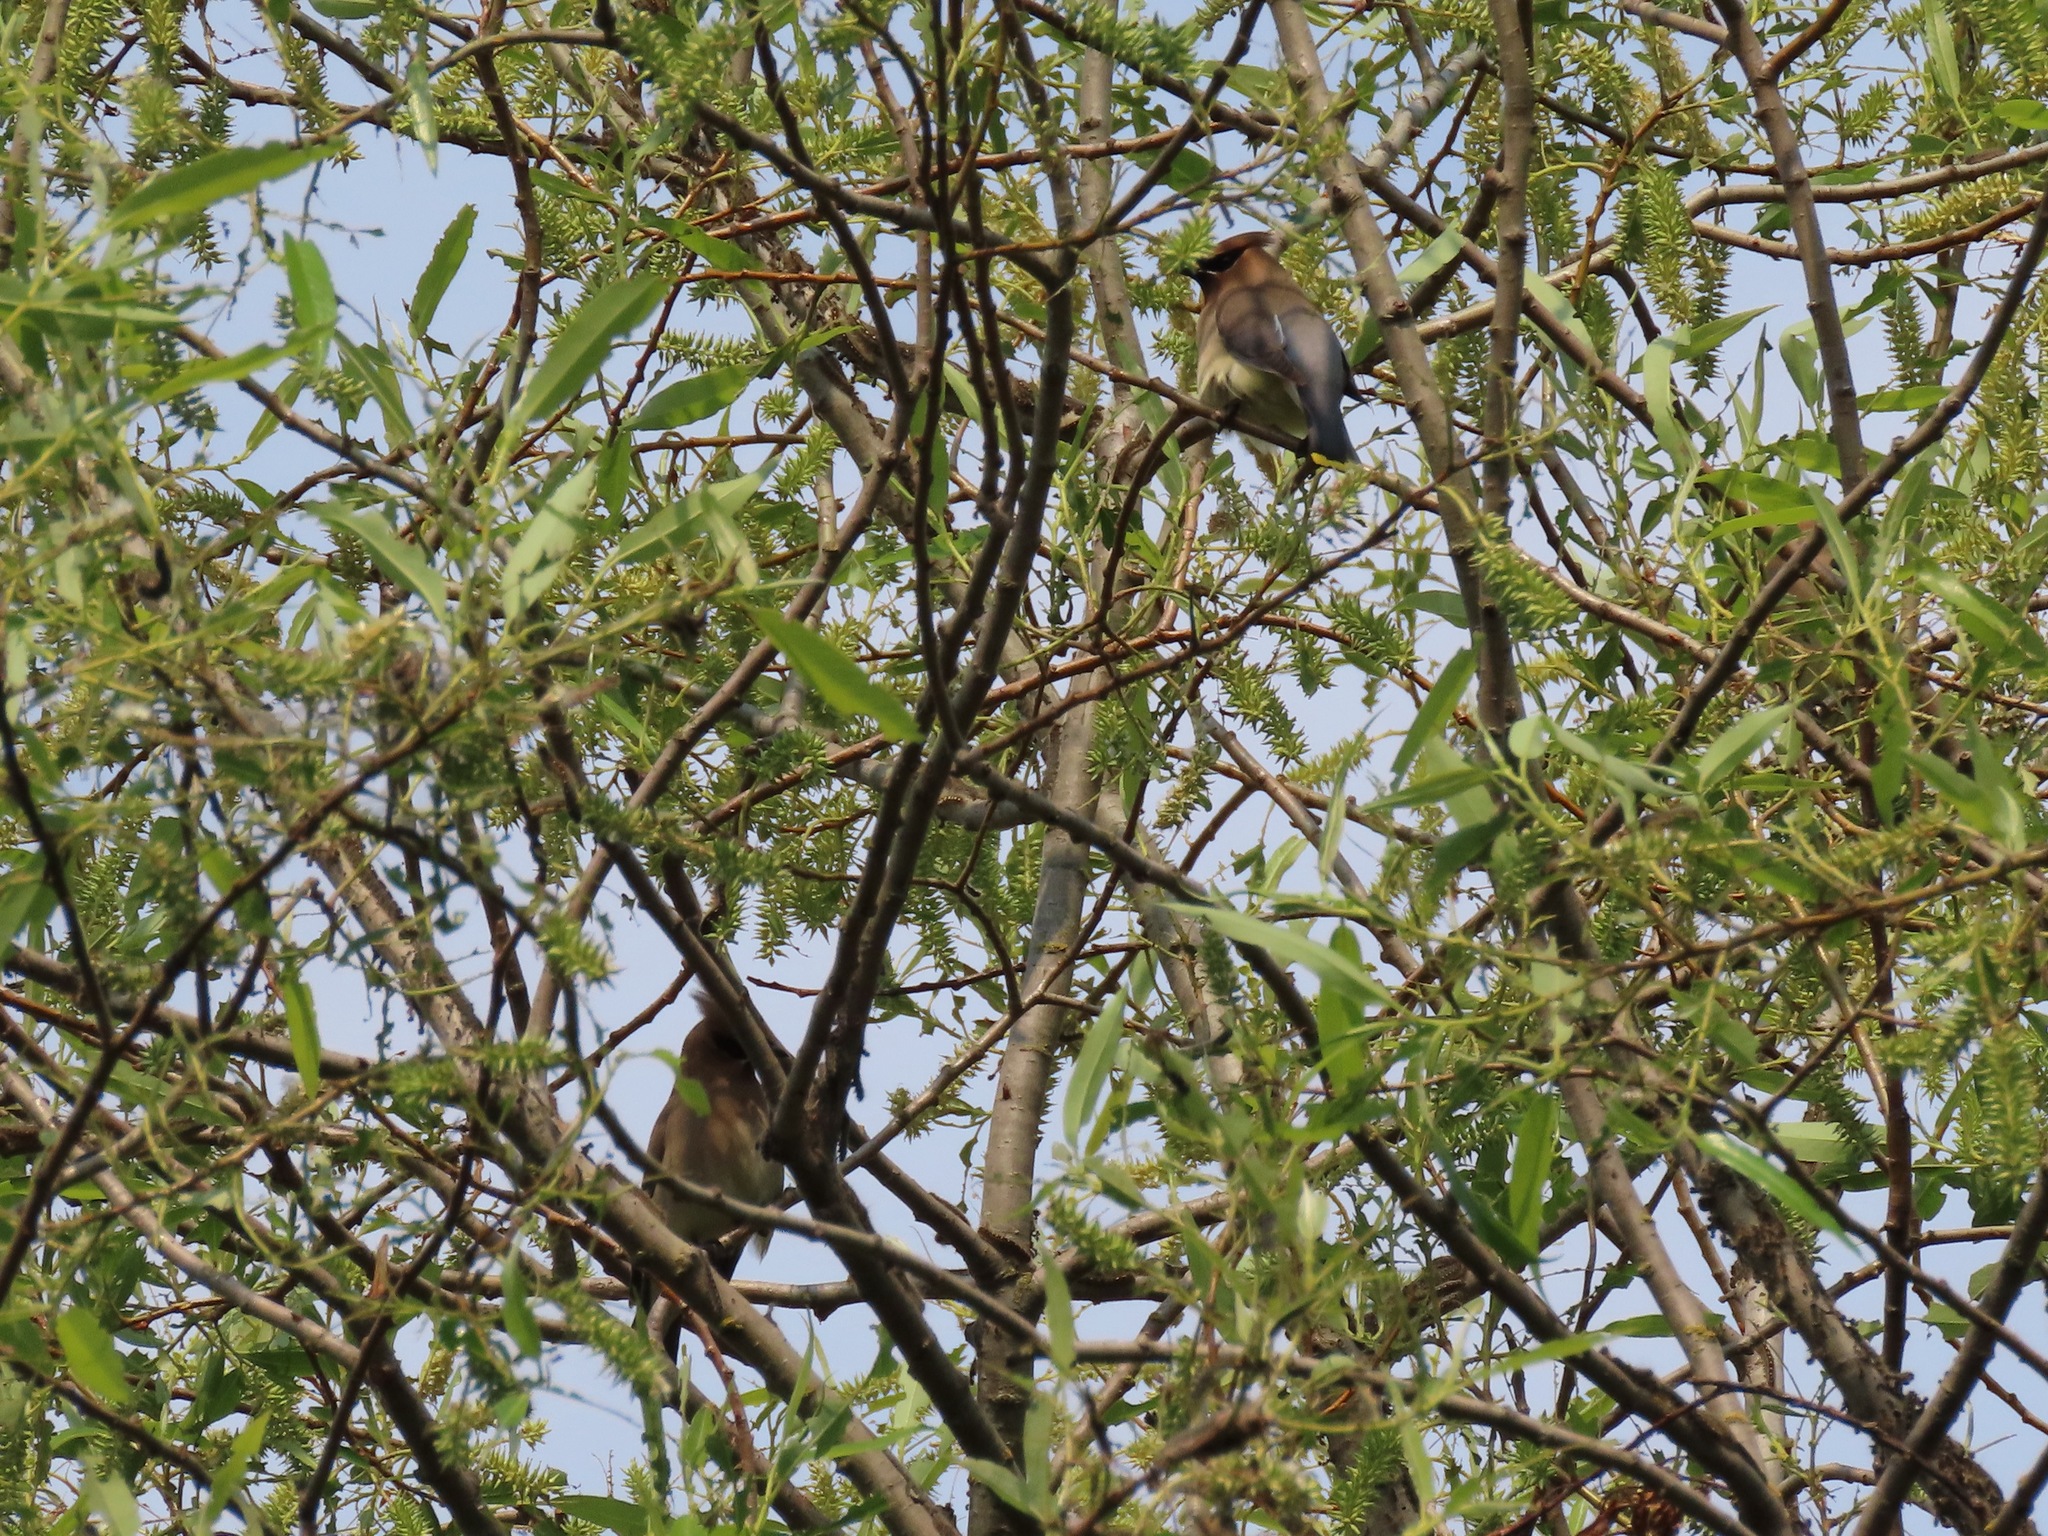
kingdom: Animalia
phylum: Chordata
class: Aves
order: Passeriformes
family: Bombycillidae
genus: Bombycilla
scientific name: Bombycilla cedrorum
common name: Cedar waxwing
